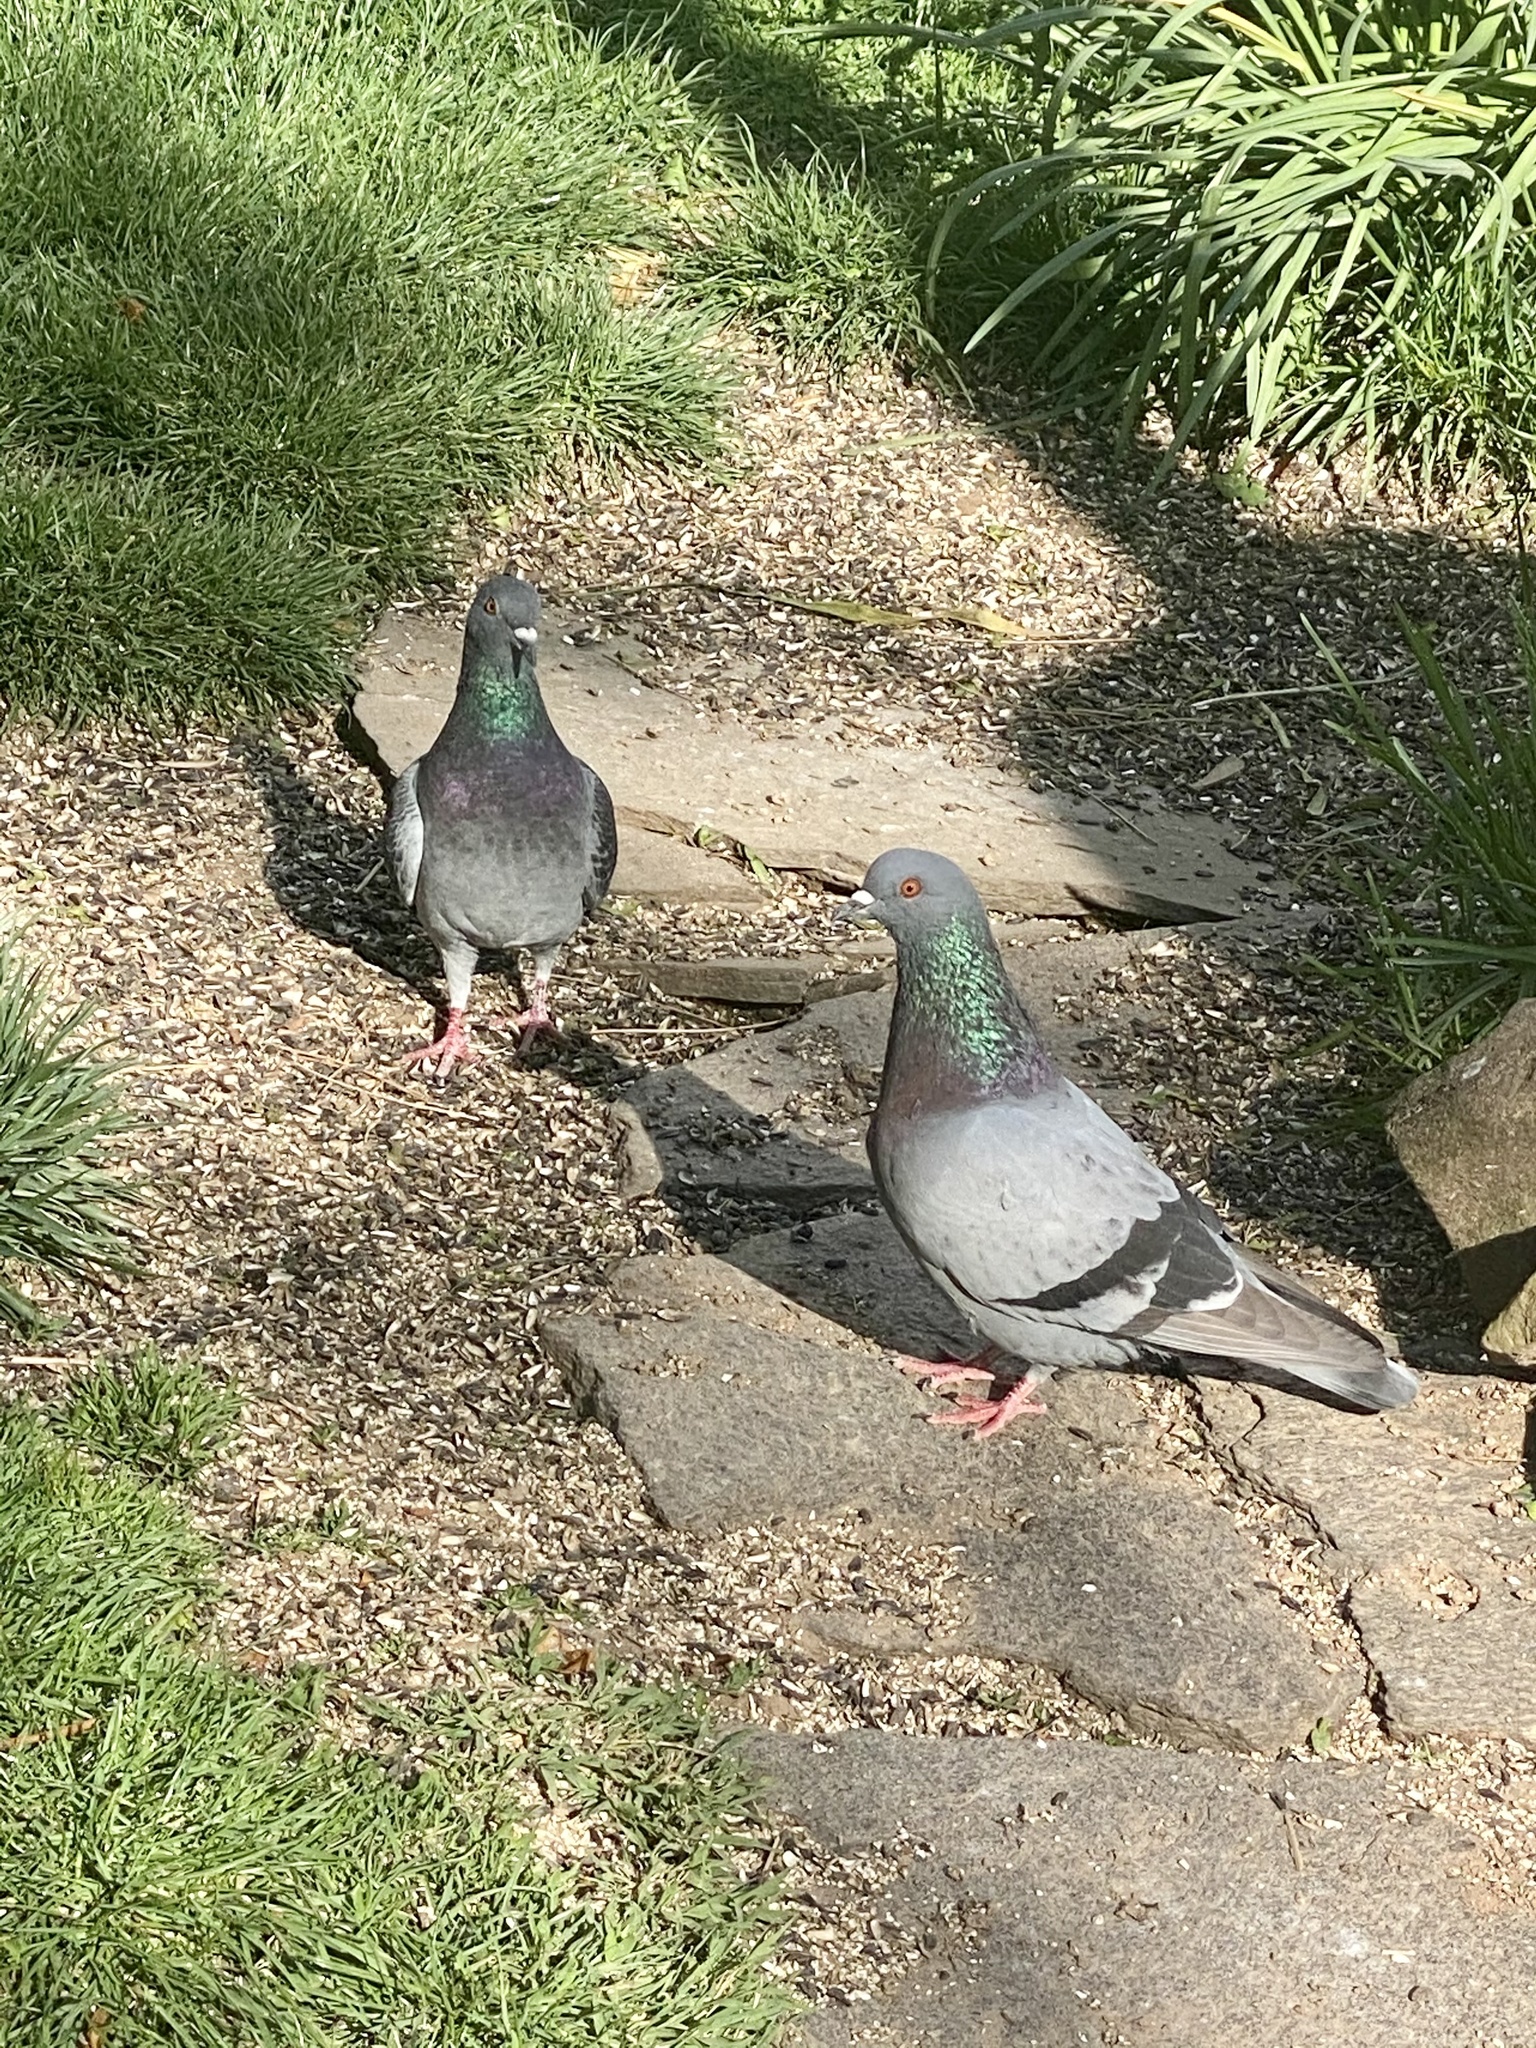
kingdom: Animalia
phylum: Chordata
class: Aves
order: Columbiformes
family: Columbidae
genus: Columba
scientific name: Columba livia
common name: Rock pigeon
